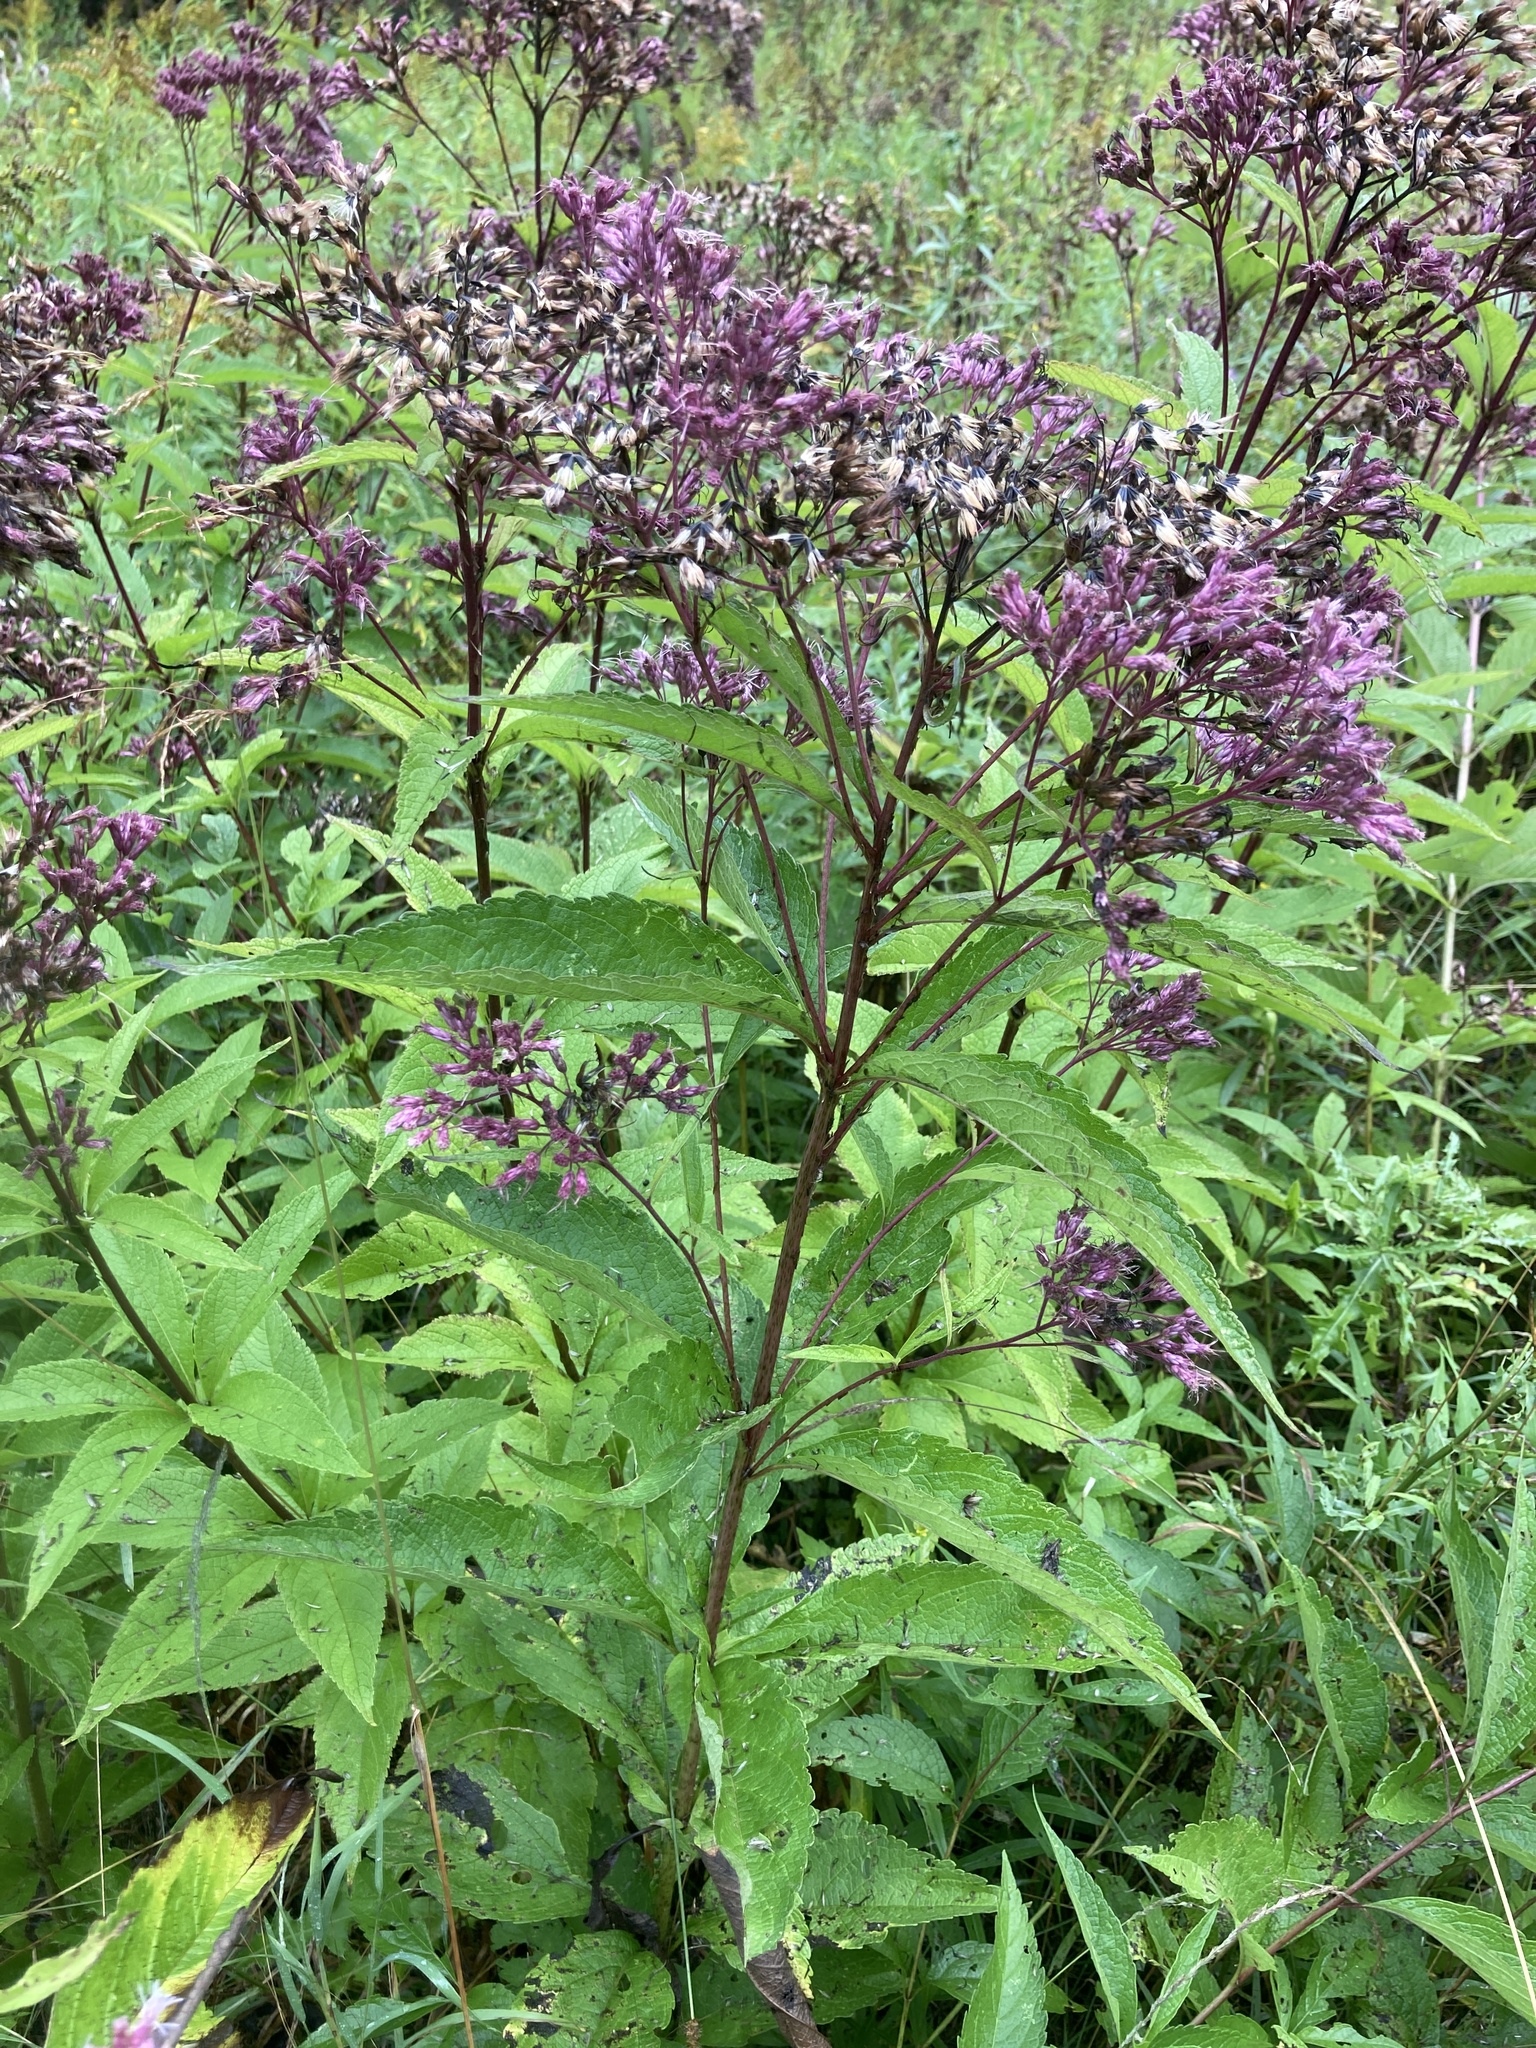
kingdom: Plantae
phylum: Tracheophyta
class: Magnoliopsida
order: Asterales
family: Asteraceae
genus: Eutrochium
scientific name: Eutrochium maculatum
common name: Spotted joe pye weed
